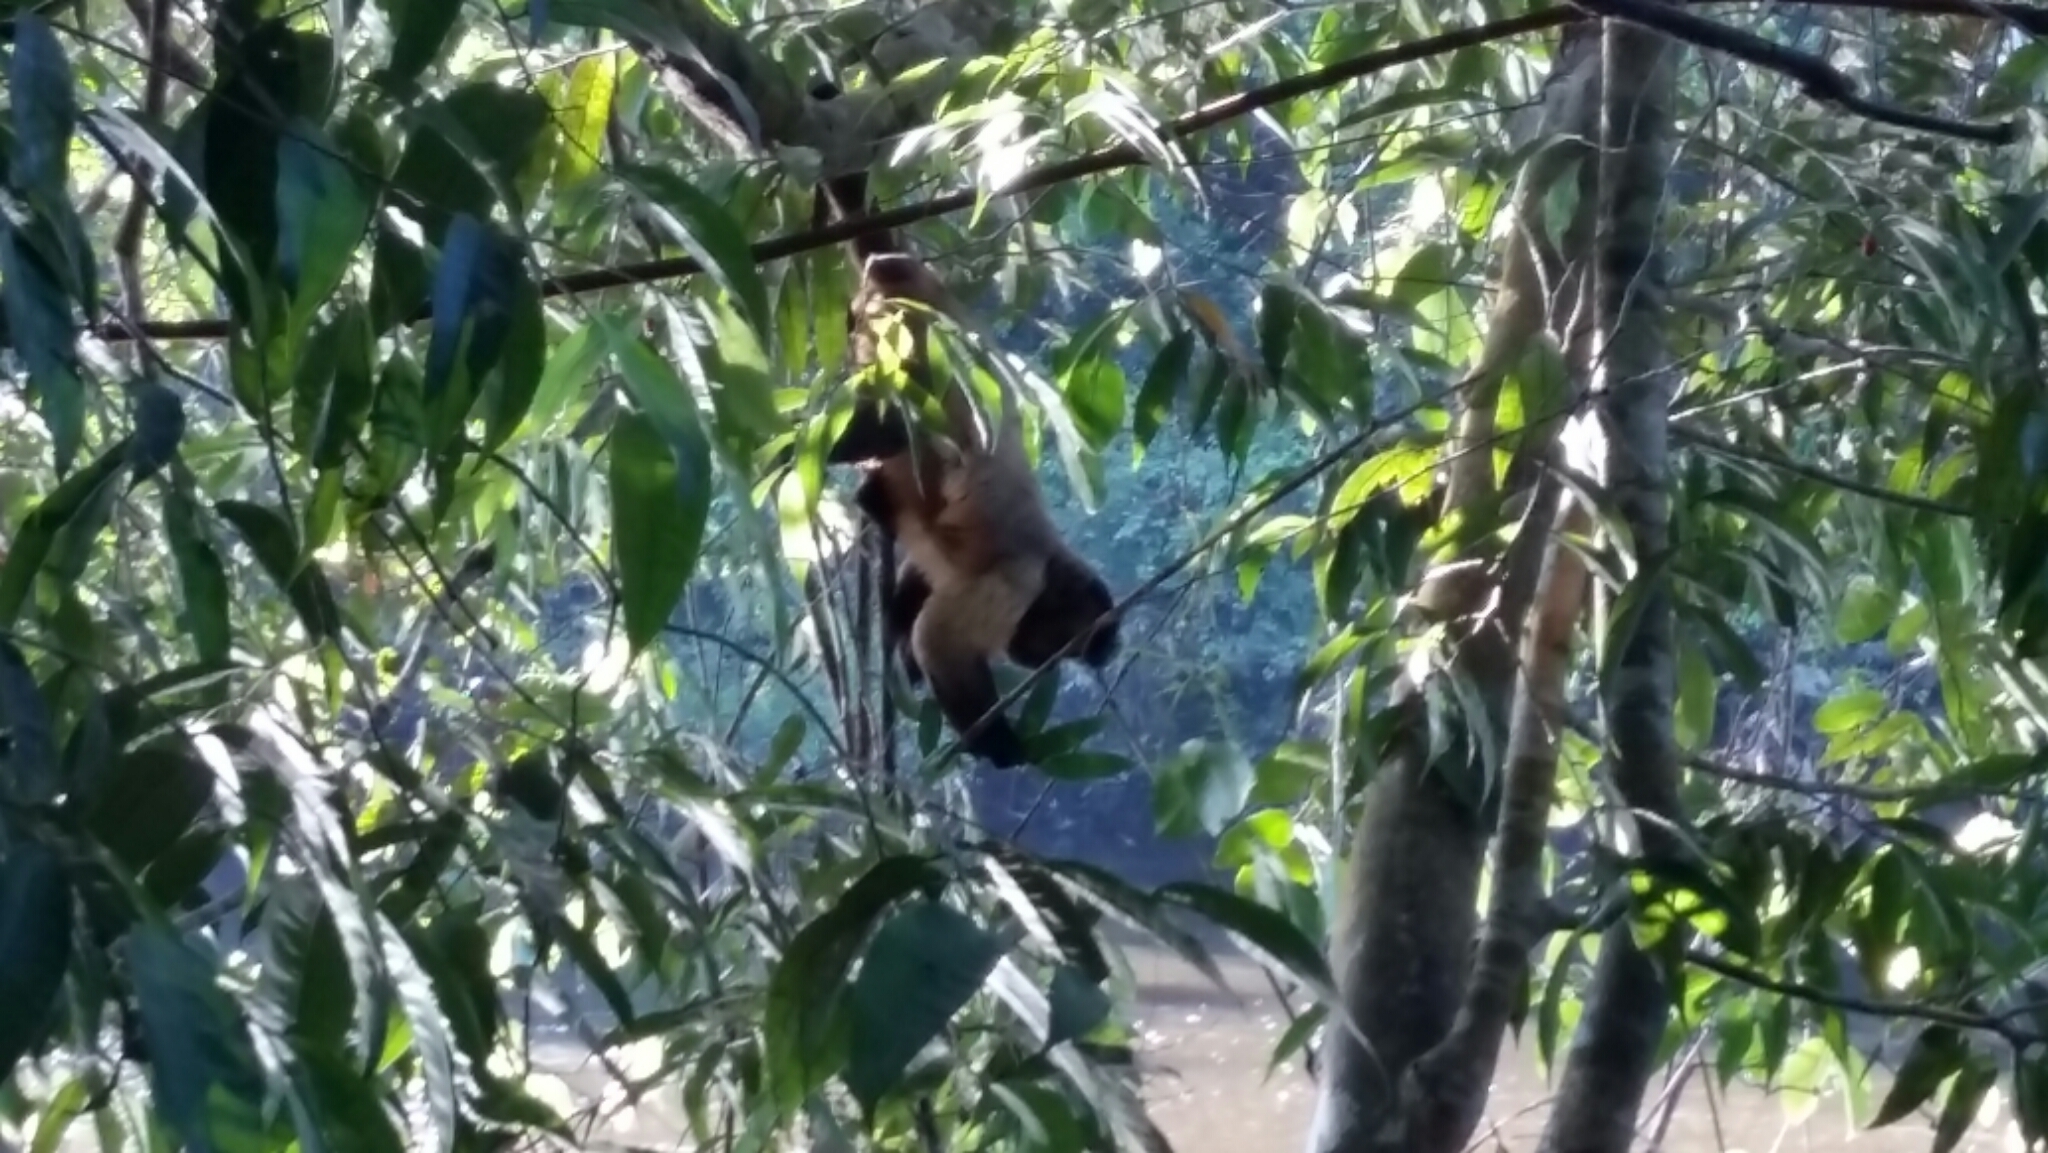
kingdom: Animalia
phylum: Chordata
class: Mammalia
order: Primates
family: Cebidae
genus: Sapajus
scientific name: Sapajus apella
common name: Tufted capuchin
